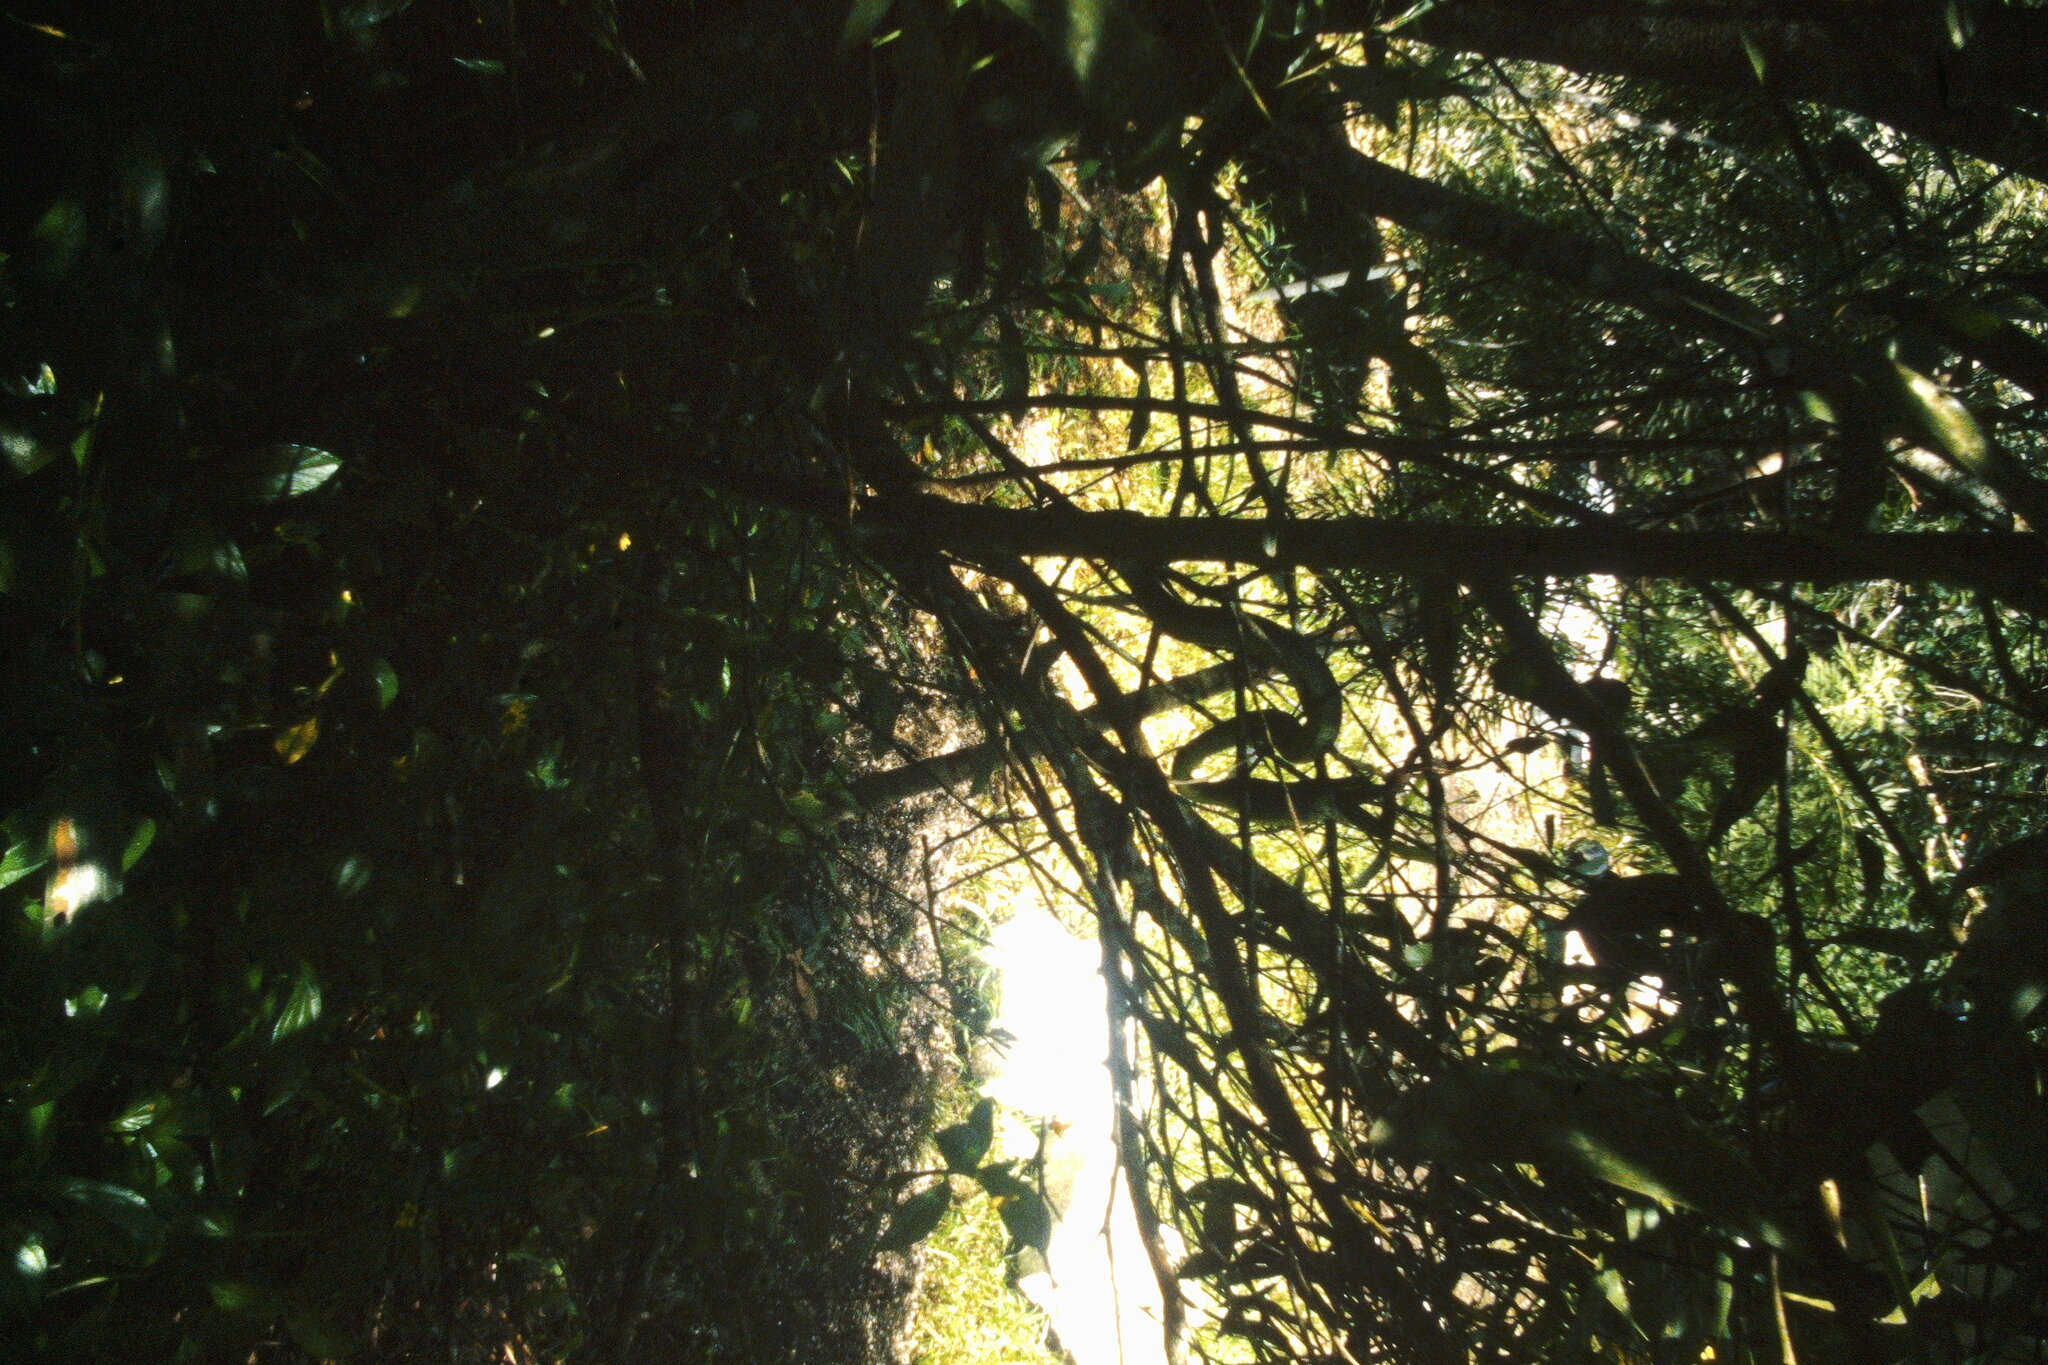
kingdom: Animalia
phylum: Chordata
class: Squamata
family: Colubridae
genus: Dendrelaphis
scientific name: Dendrelaphis punctulatus
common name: Common tree snake
